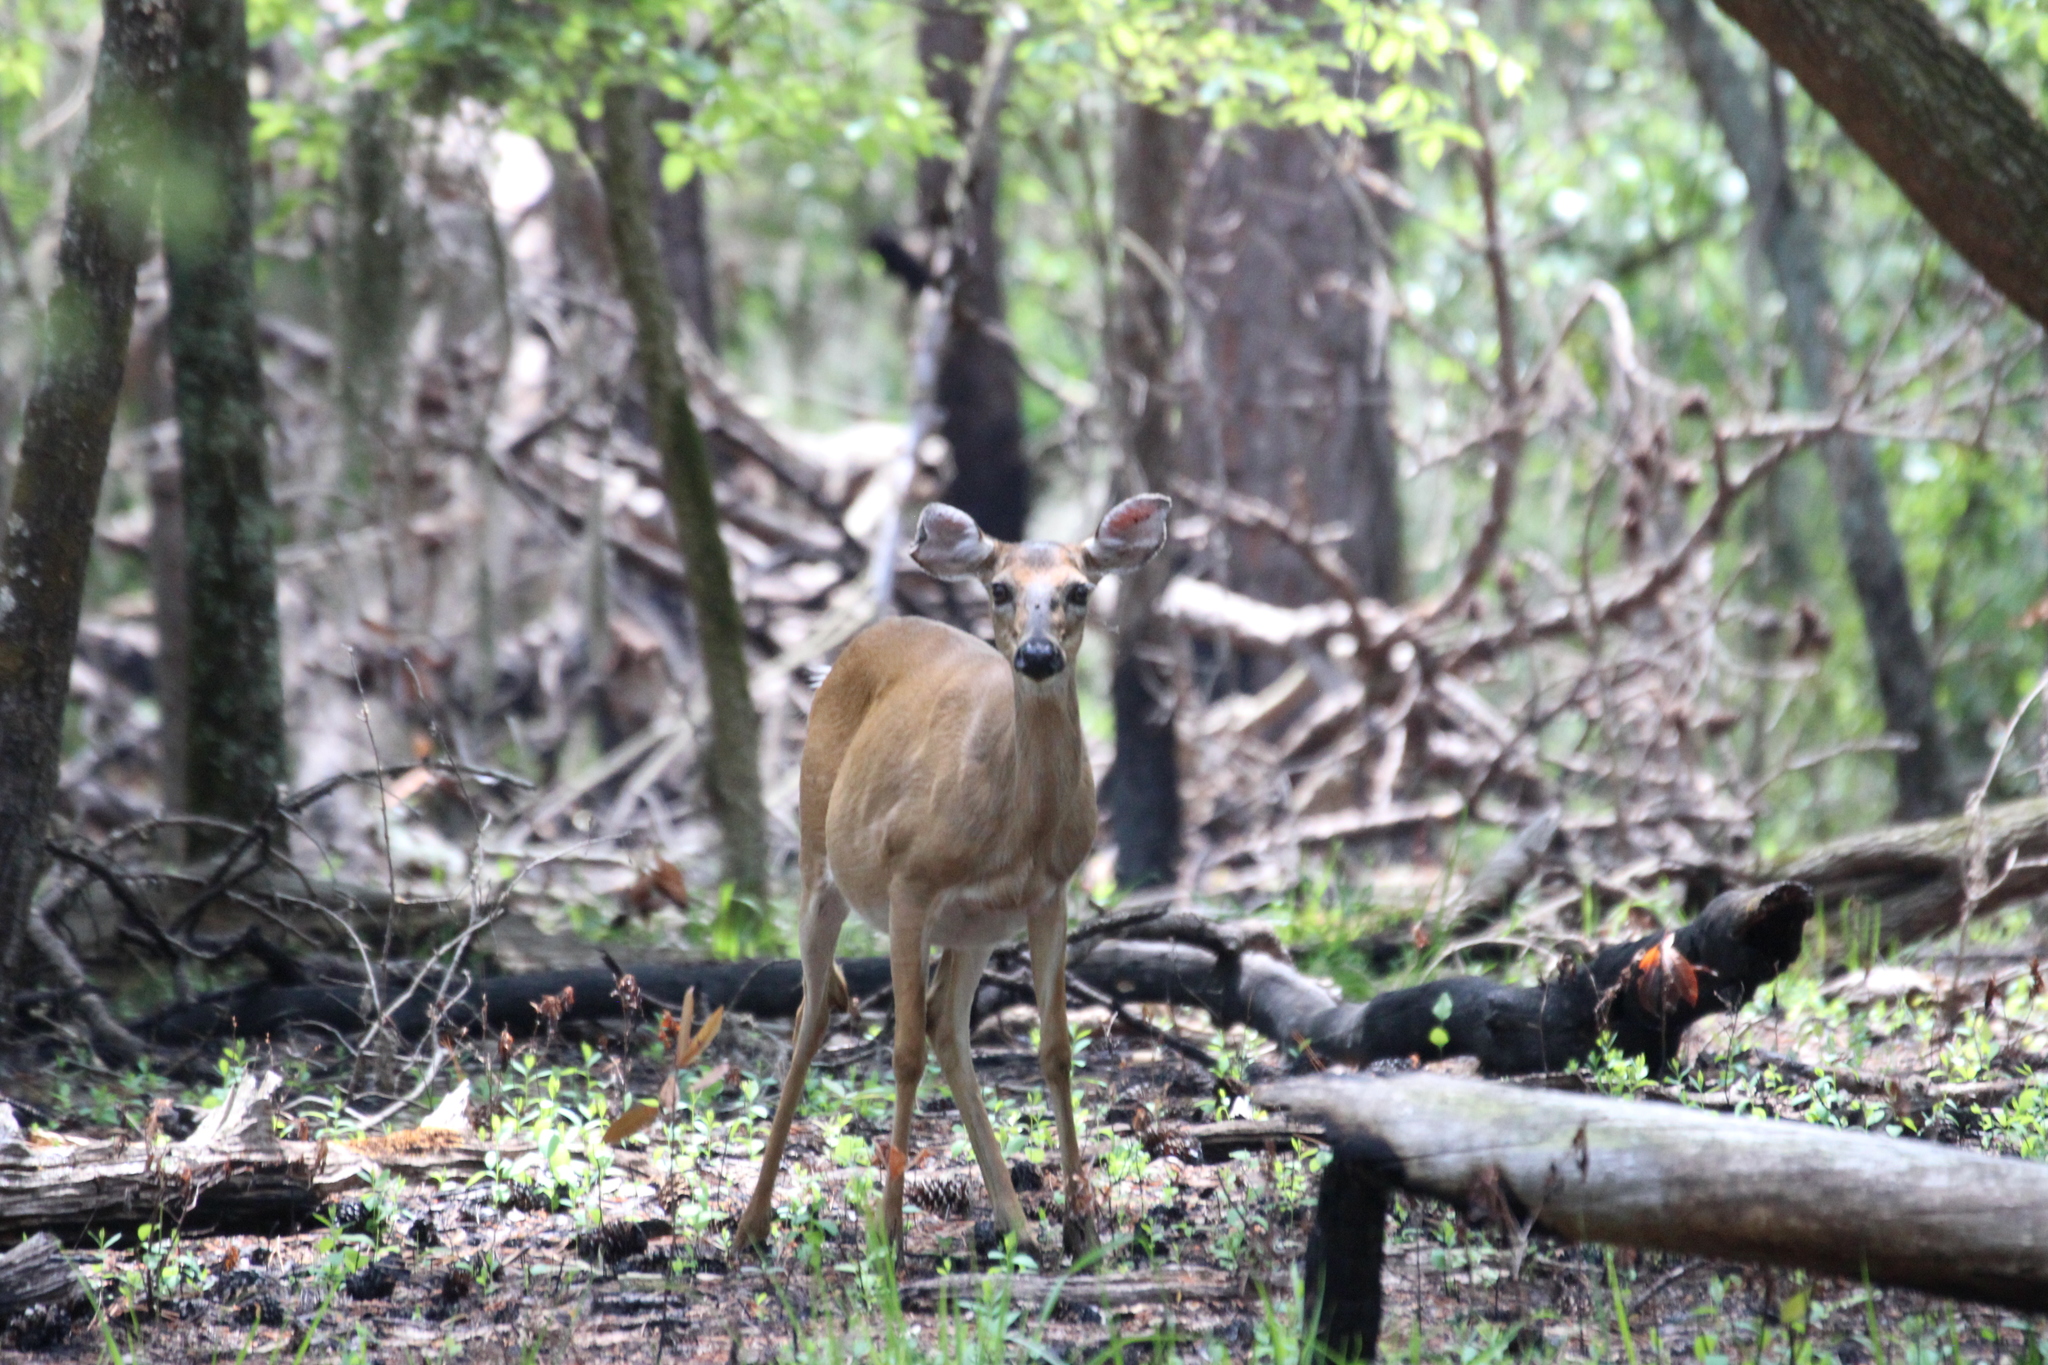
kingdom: Animalia
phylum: Chordata
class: Mammalia
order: Artiodactyla
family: Cervidae
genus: Odocoileus
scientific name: Odocoileus virginianus
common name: White-tailed deer
